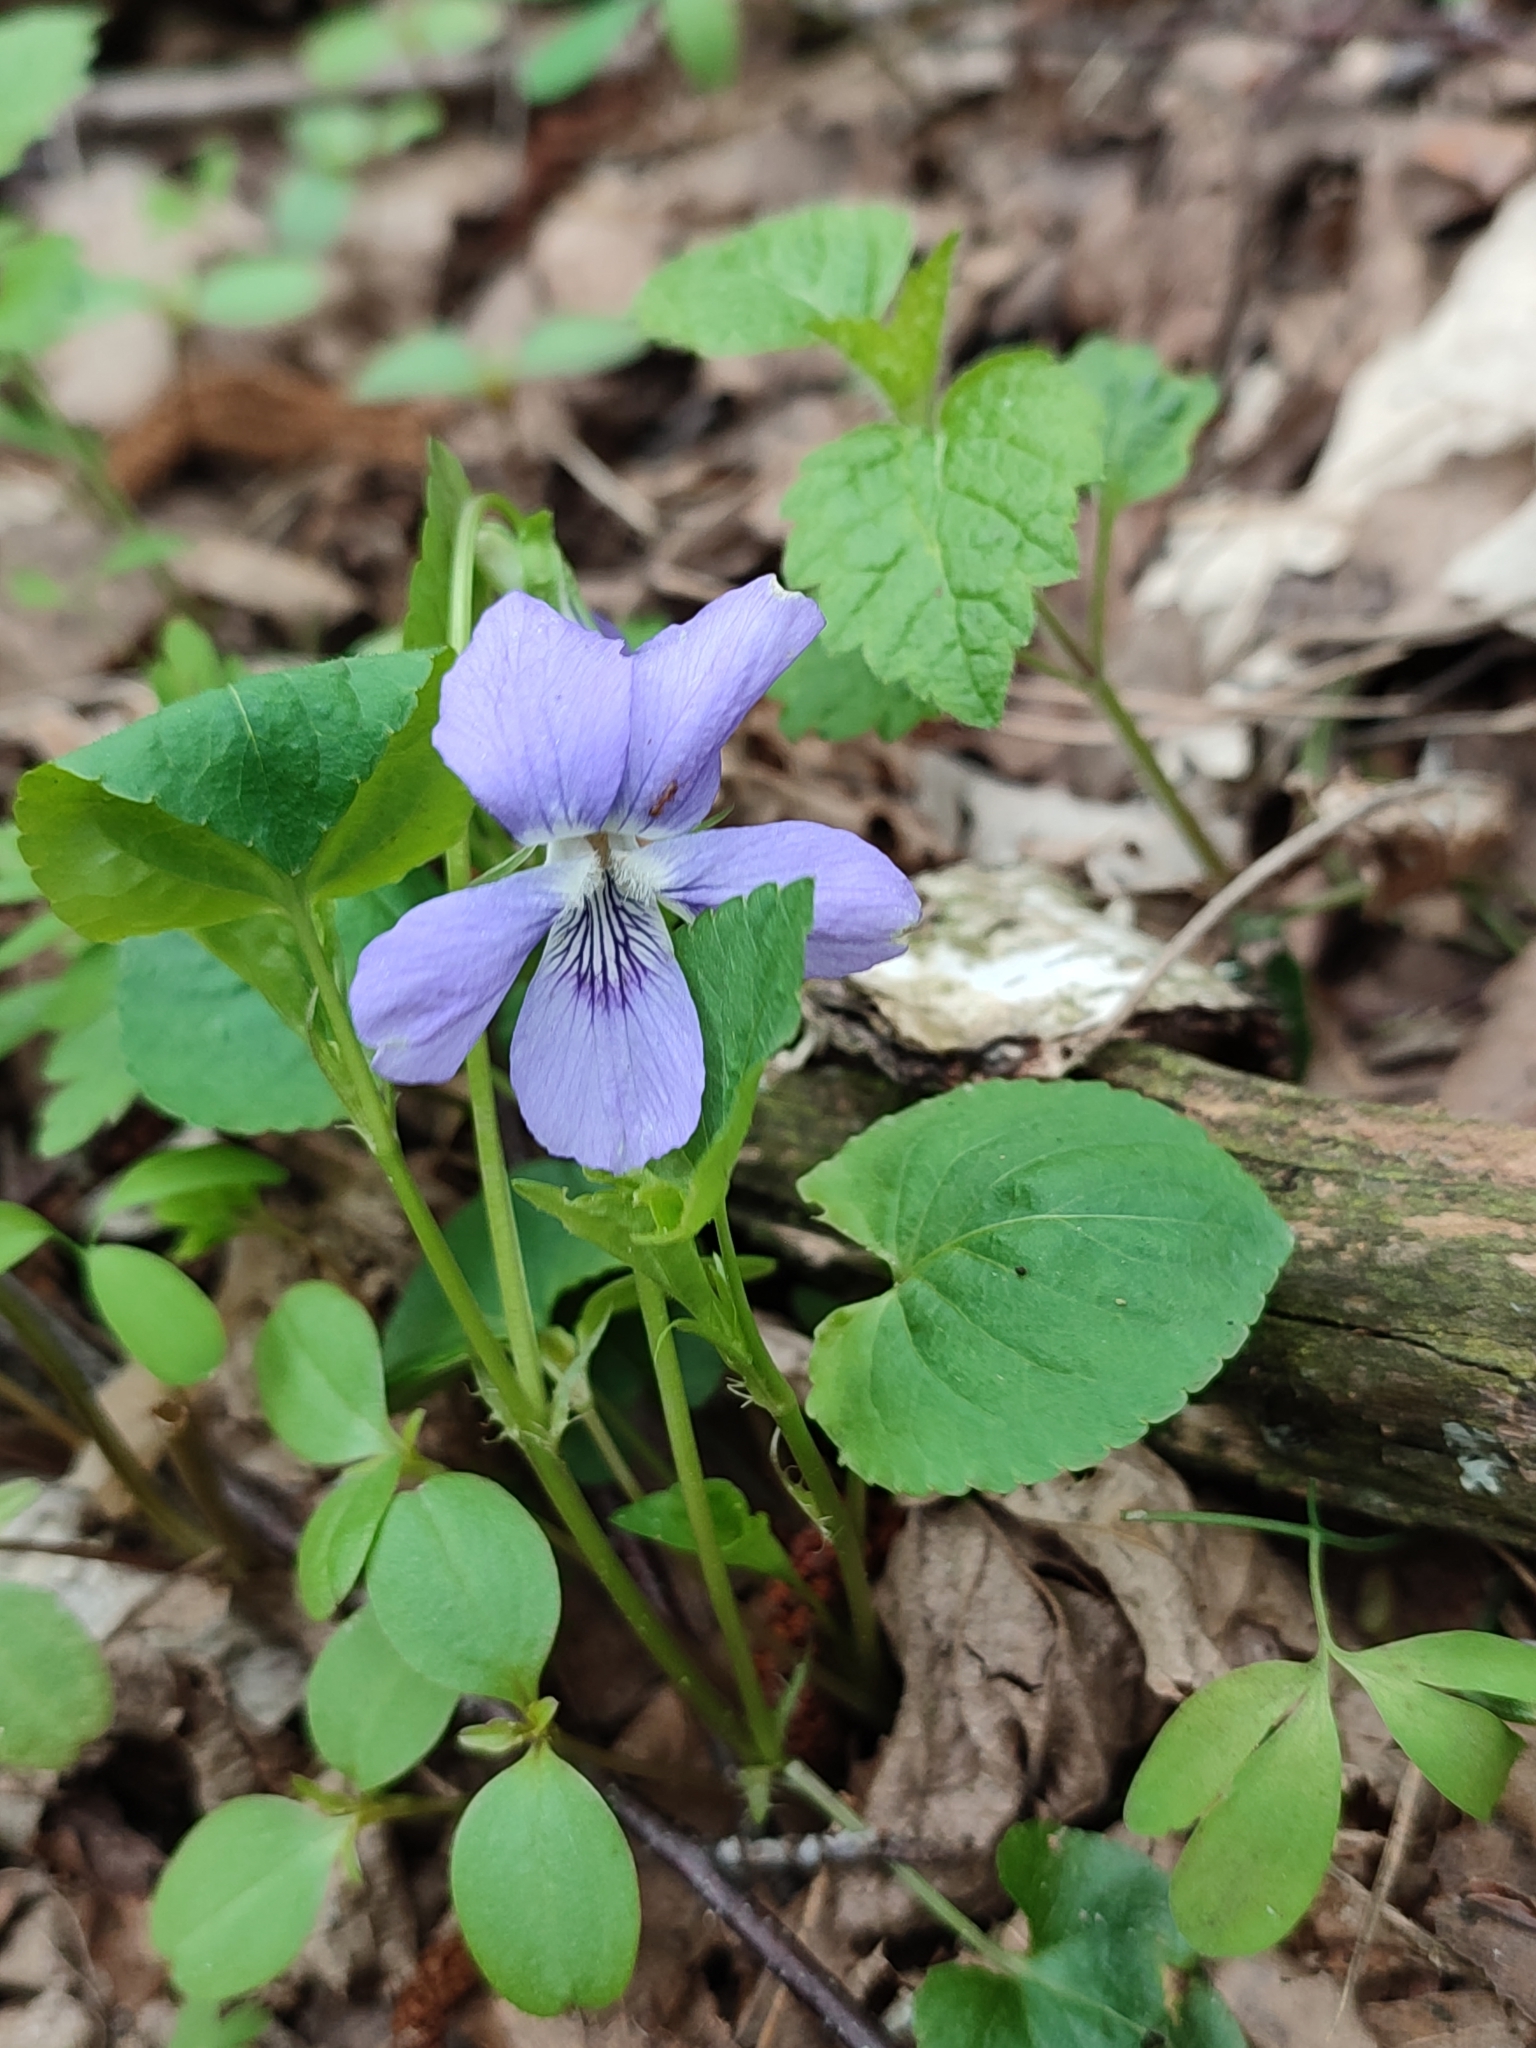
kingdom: Plantae
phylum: Tracheophyta
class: Magnoliopsida
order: Malpighiales
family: Violaceae
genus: Viola
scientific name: Viola riviniana
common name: Common dog-violet
